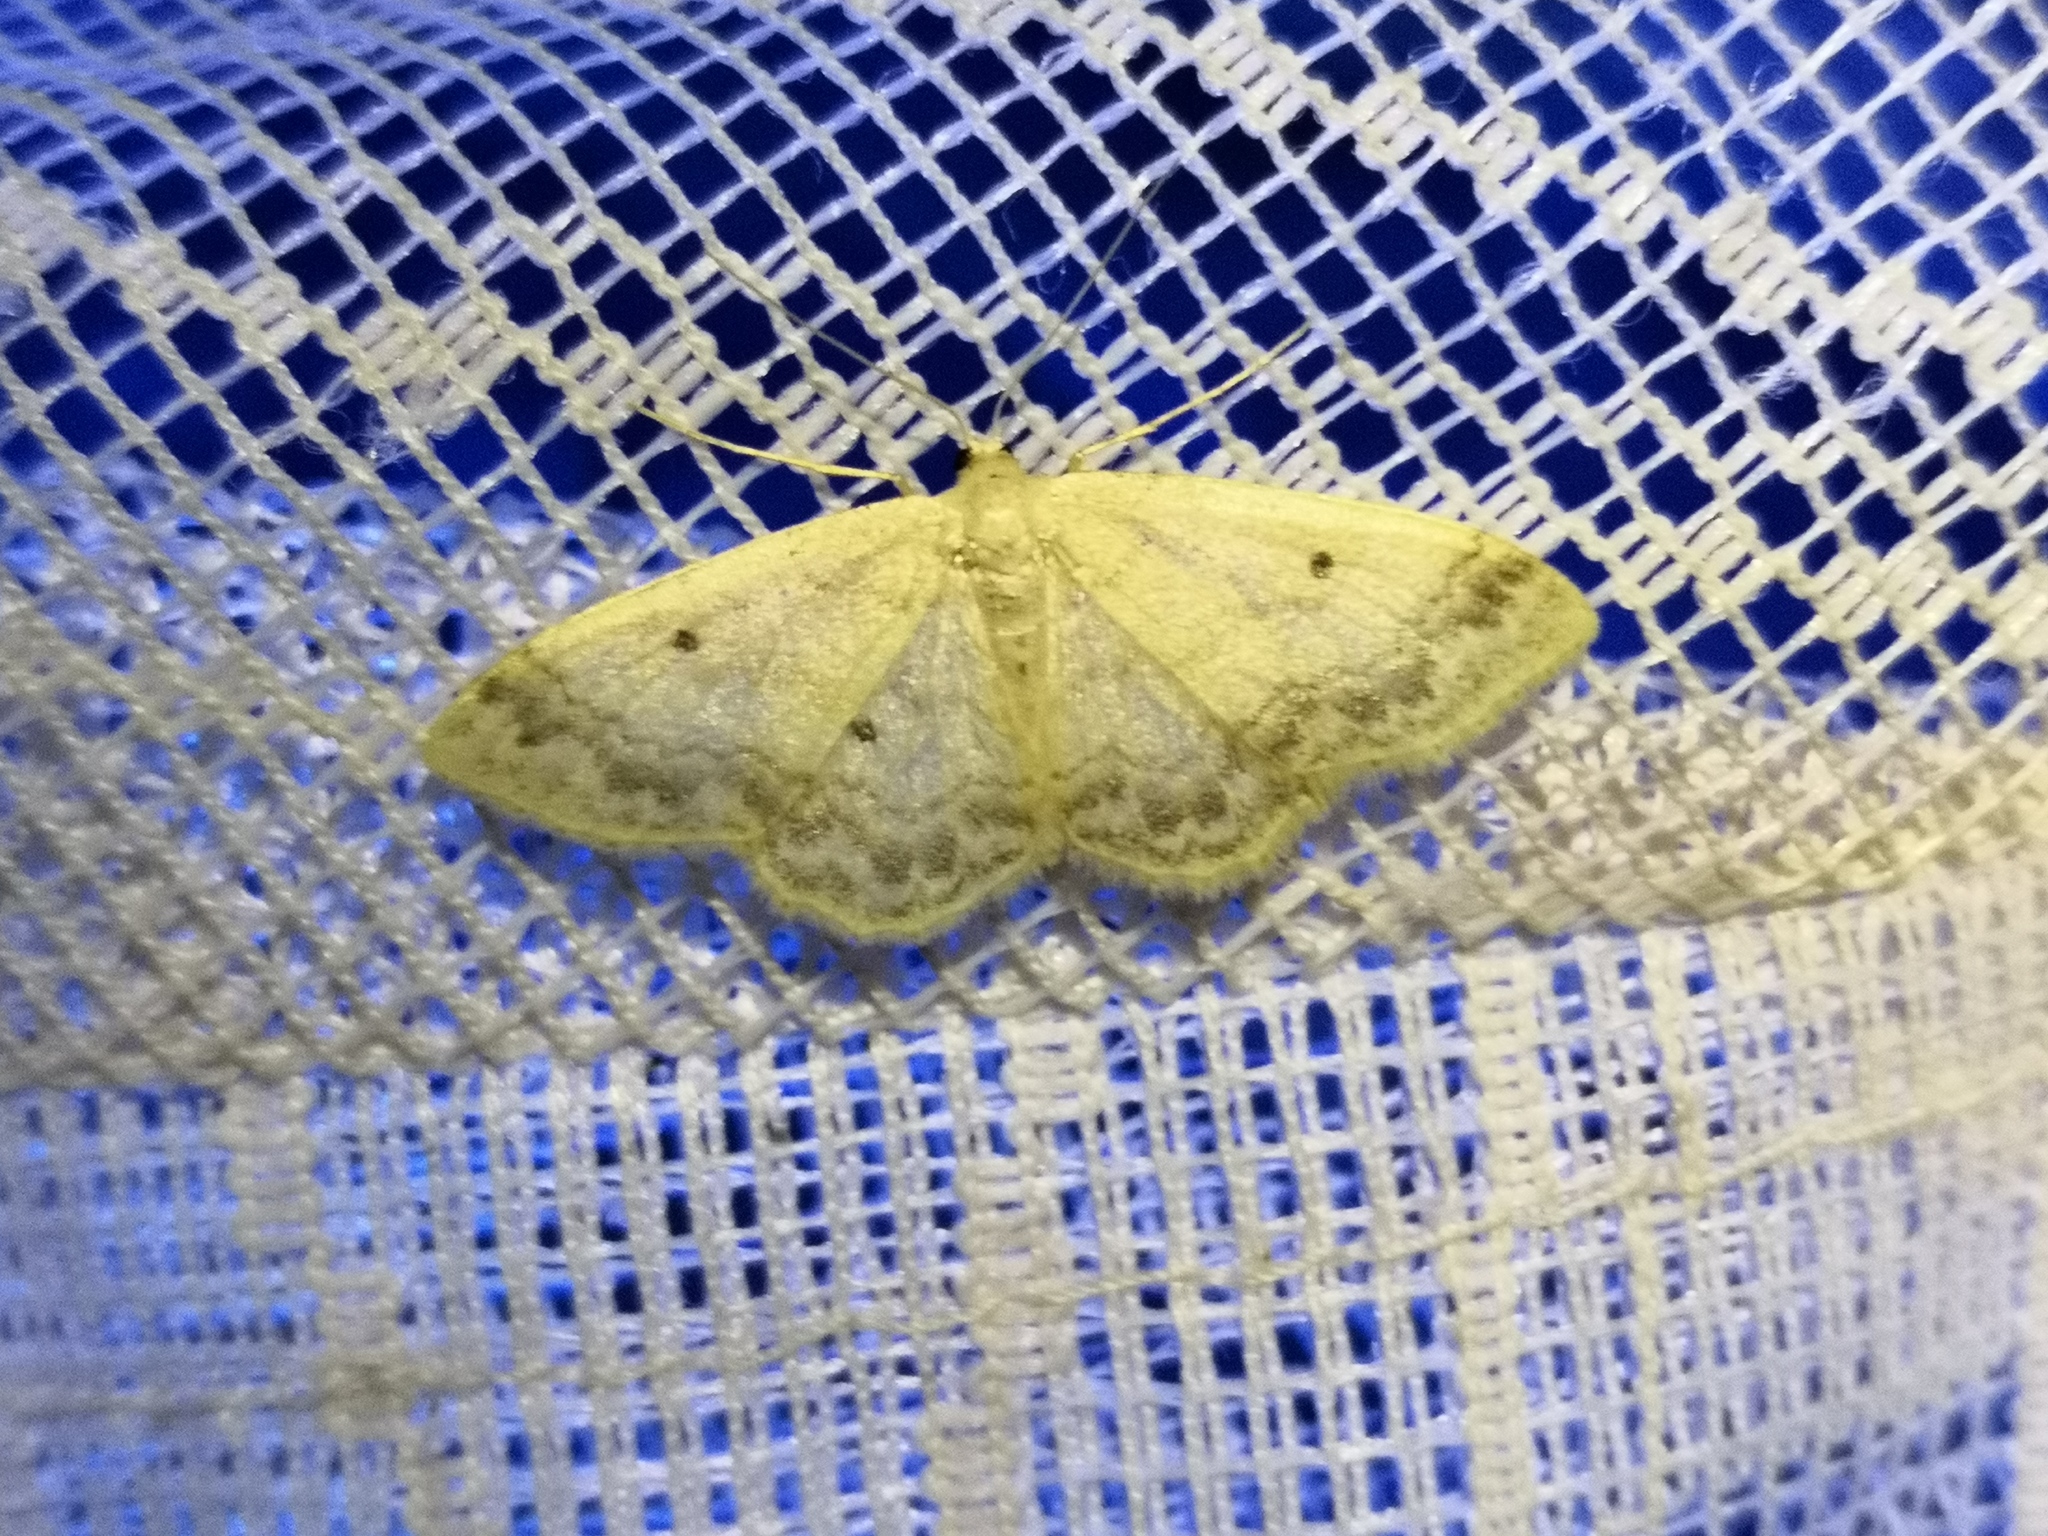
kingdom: Animalia
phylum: Arthropoda
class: Insecta
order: Lepidoptera
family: Geometridae
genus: Idaea
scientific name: Idaea biselata
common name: Small fan-footed wave
